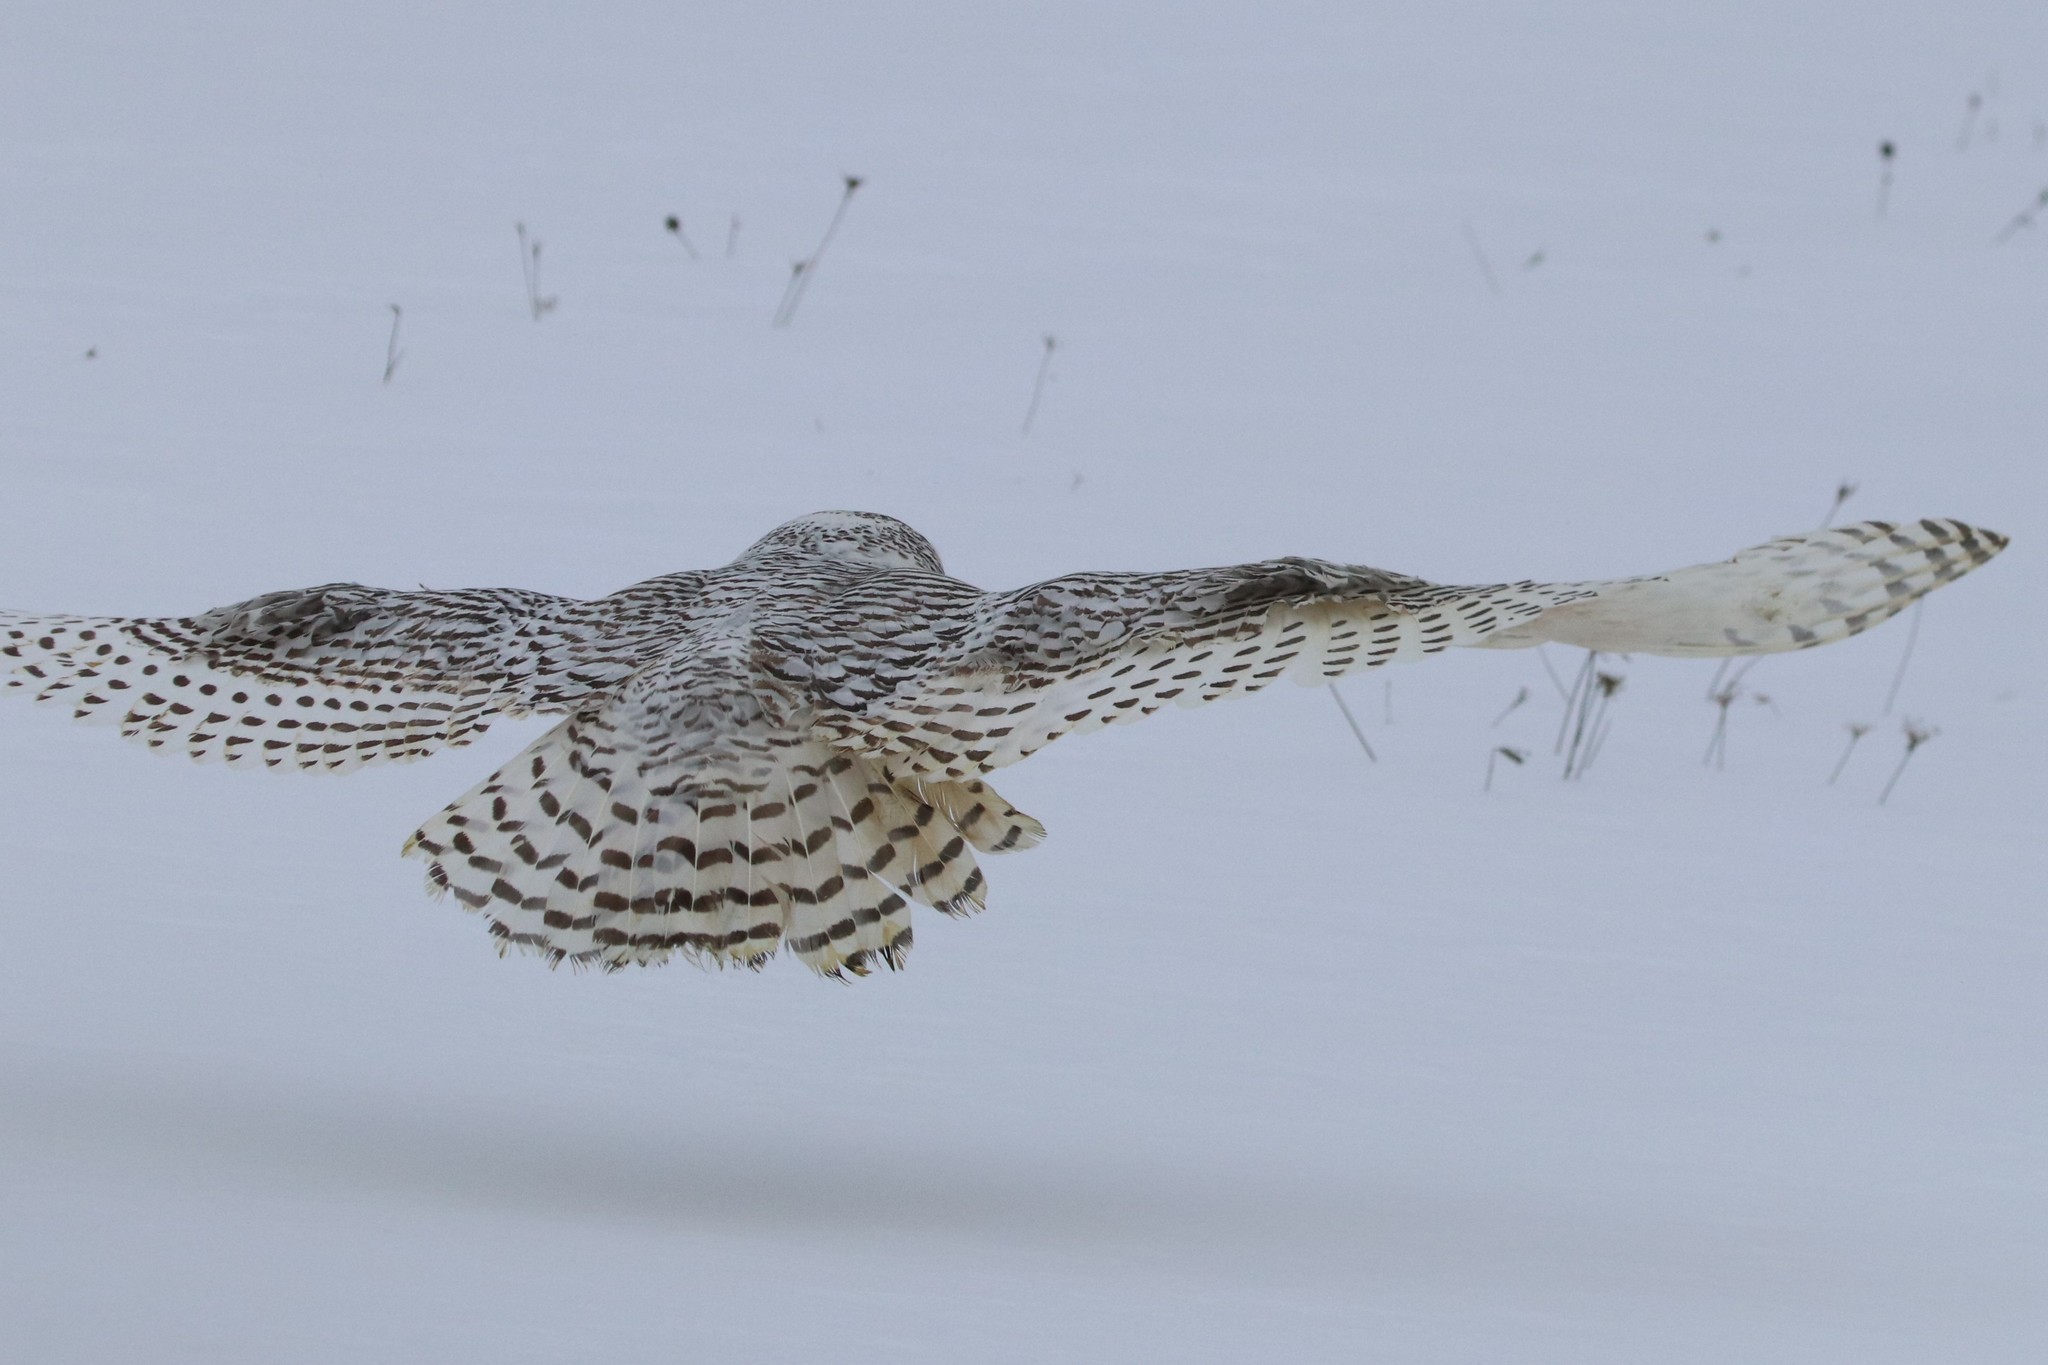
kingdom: Animalia
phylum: Chordata
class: Aves
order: Strigiformes
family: Strigidae
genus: Bubo
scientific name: Bubo scandiacus
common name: Snowy owl
